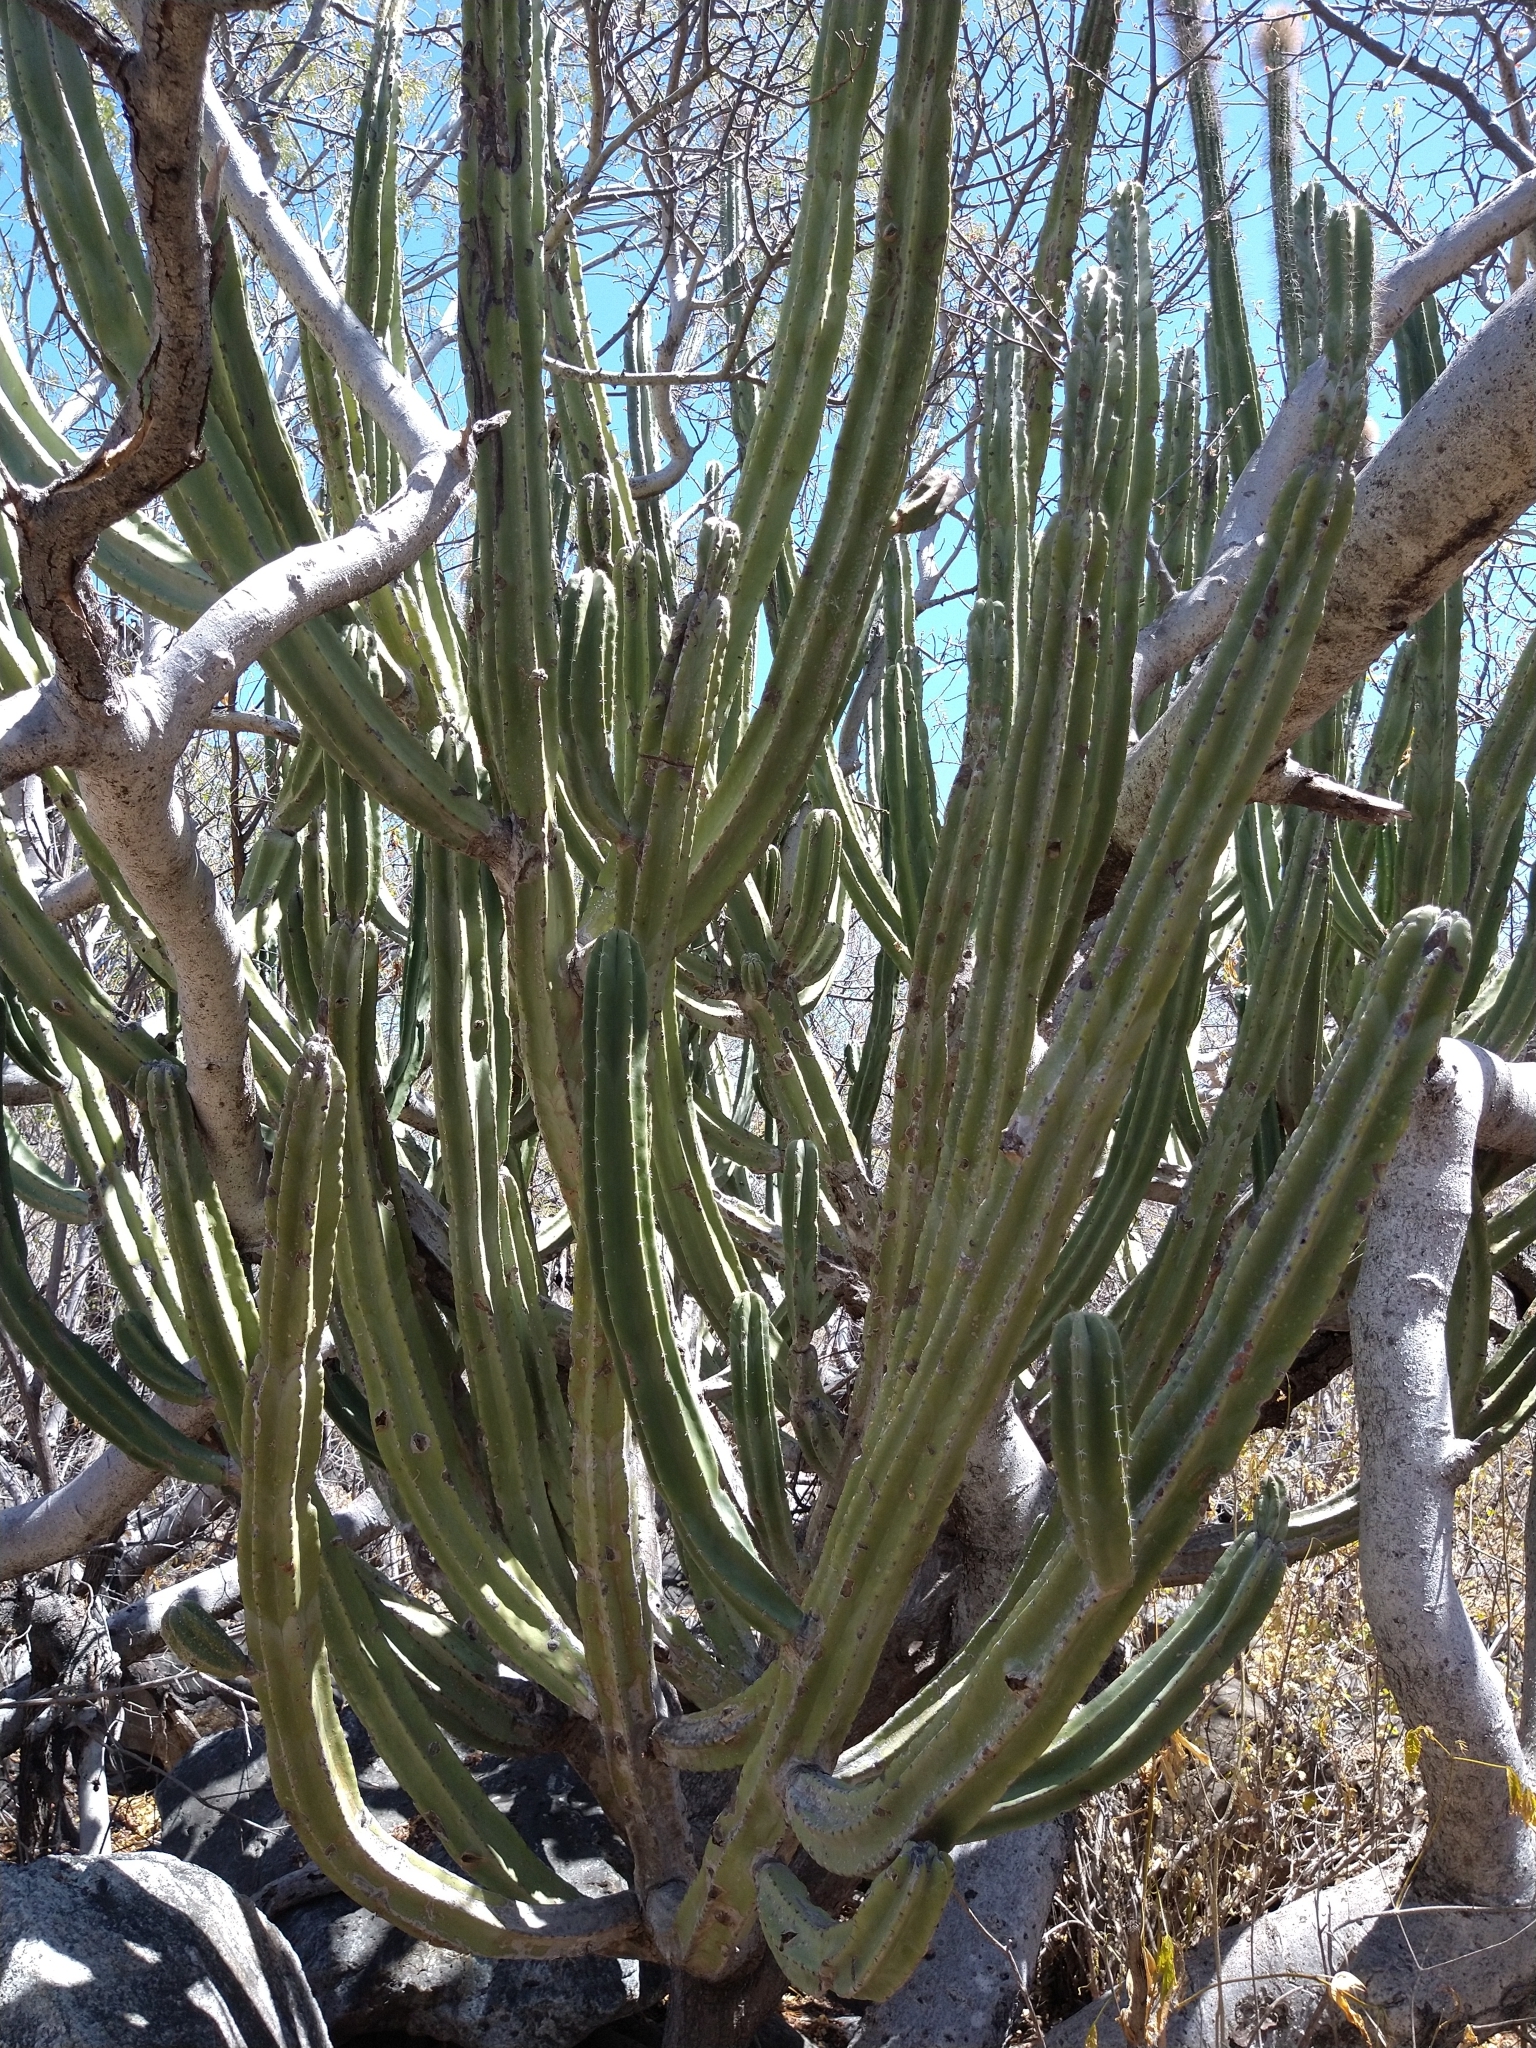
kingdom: Plantae
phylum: Tracheophyta
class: Magnoliopsida
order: Caryophyllales
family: Cactaceae
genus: Pachycereus
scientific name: Pachycereus schottii
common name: Senita cactus
